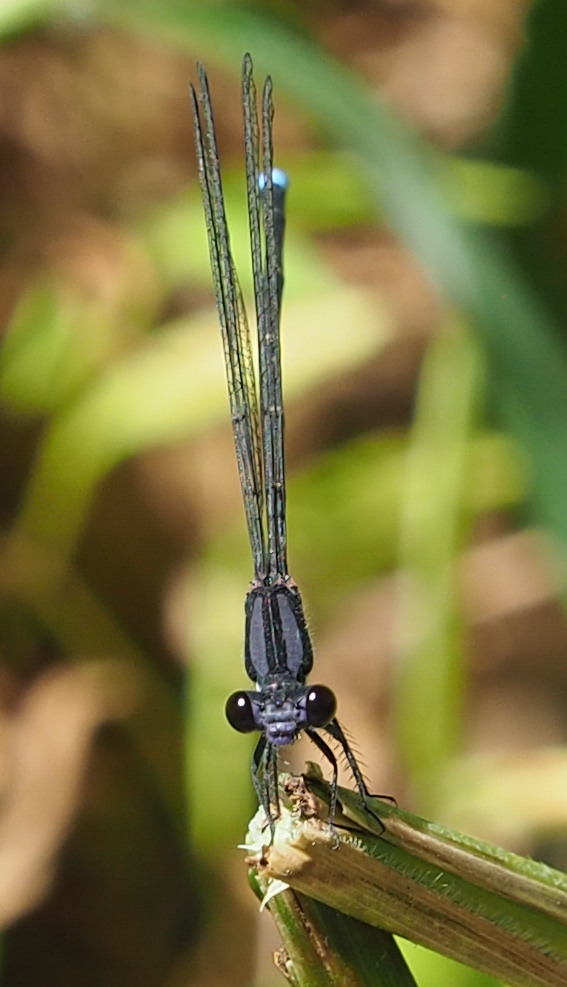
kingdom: Animalia
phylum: Arthropoda
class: Insecta
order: Odonata
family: Coenagrionidae
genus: Argia
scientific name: Argia tibialis
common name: Blue-tipped dancer
